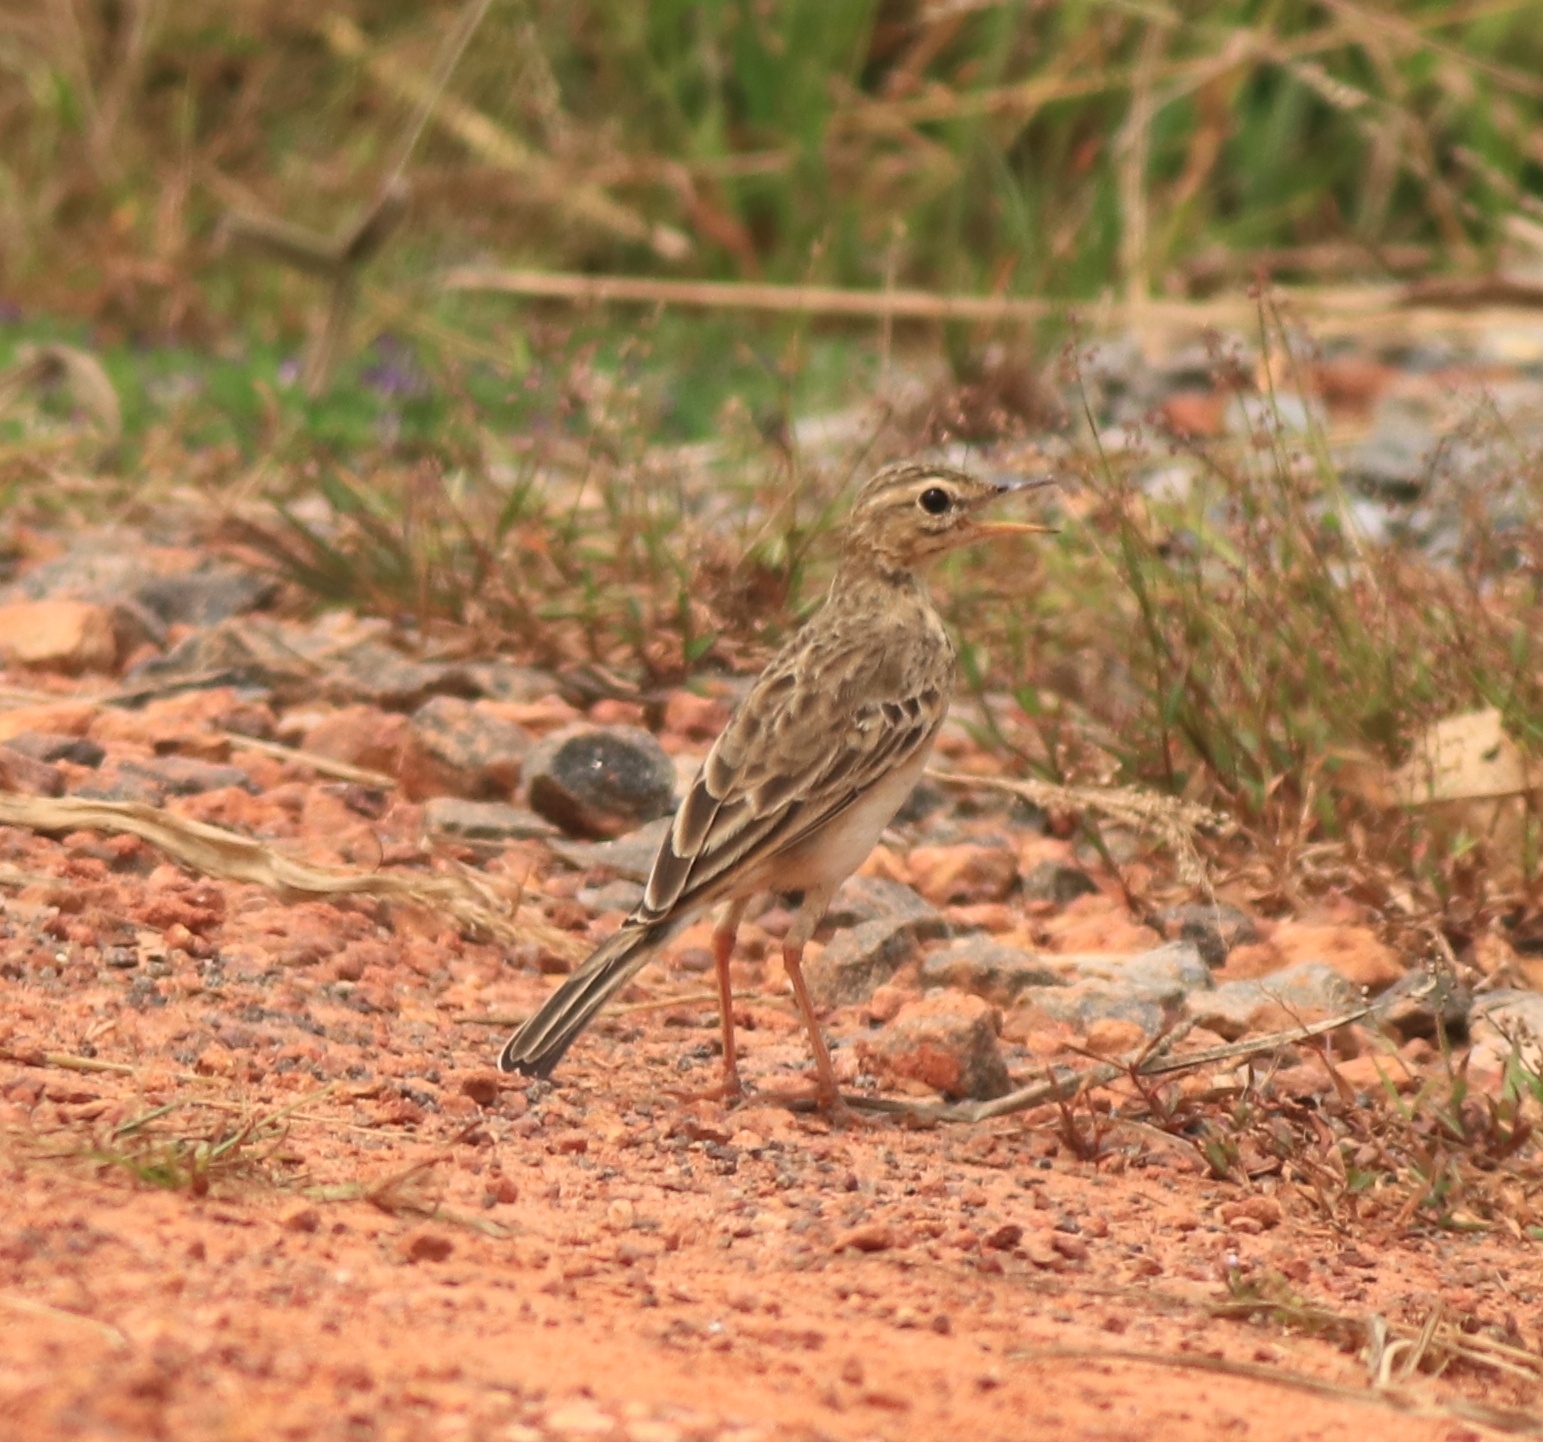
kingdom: Animalia
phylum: Chordata
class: Aves
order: Passeriformes
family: Motacillidae
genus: Anthus
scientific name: Anthus rufulus
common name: Paddyfield pipit
